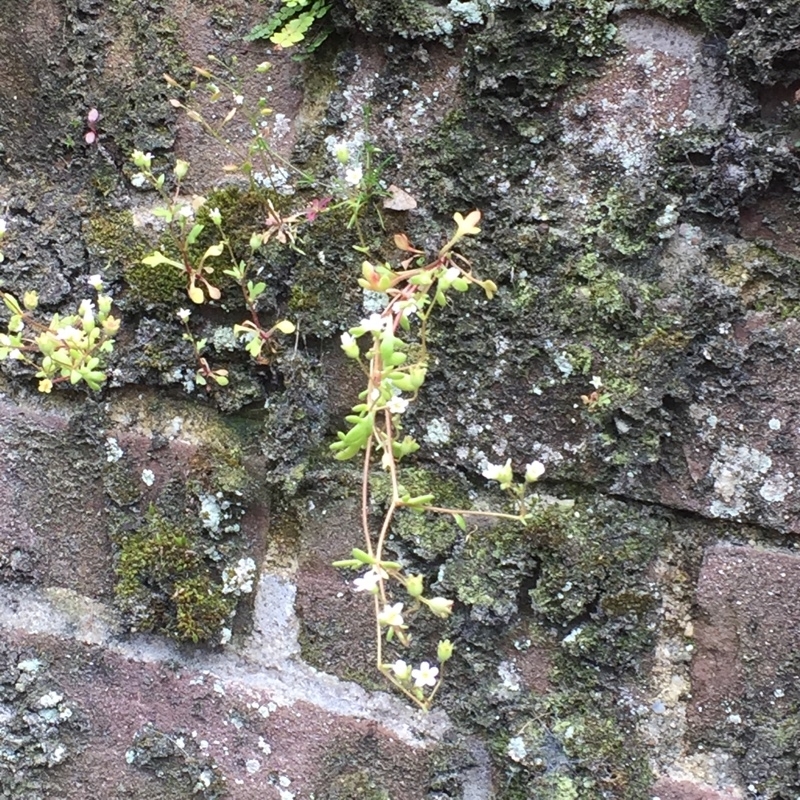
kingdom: Plantae
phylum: Tracheophyta
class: Magnoliopsida
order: Saxifragales
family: Saxifragaceae
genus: Saxifraga
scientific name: Saxifraga tridactylites
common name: Rue-leaved saxifrage
